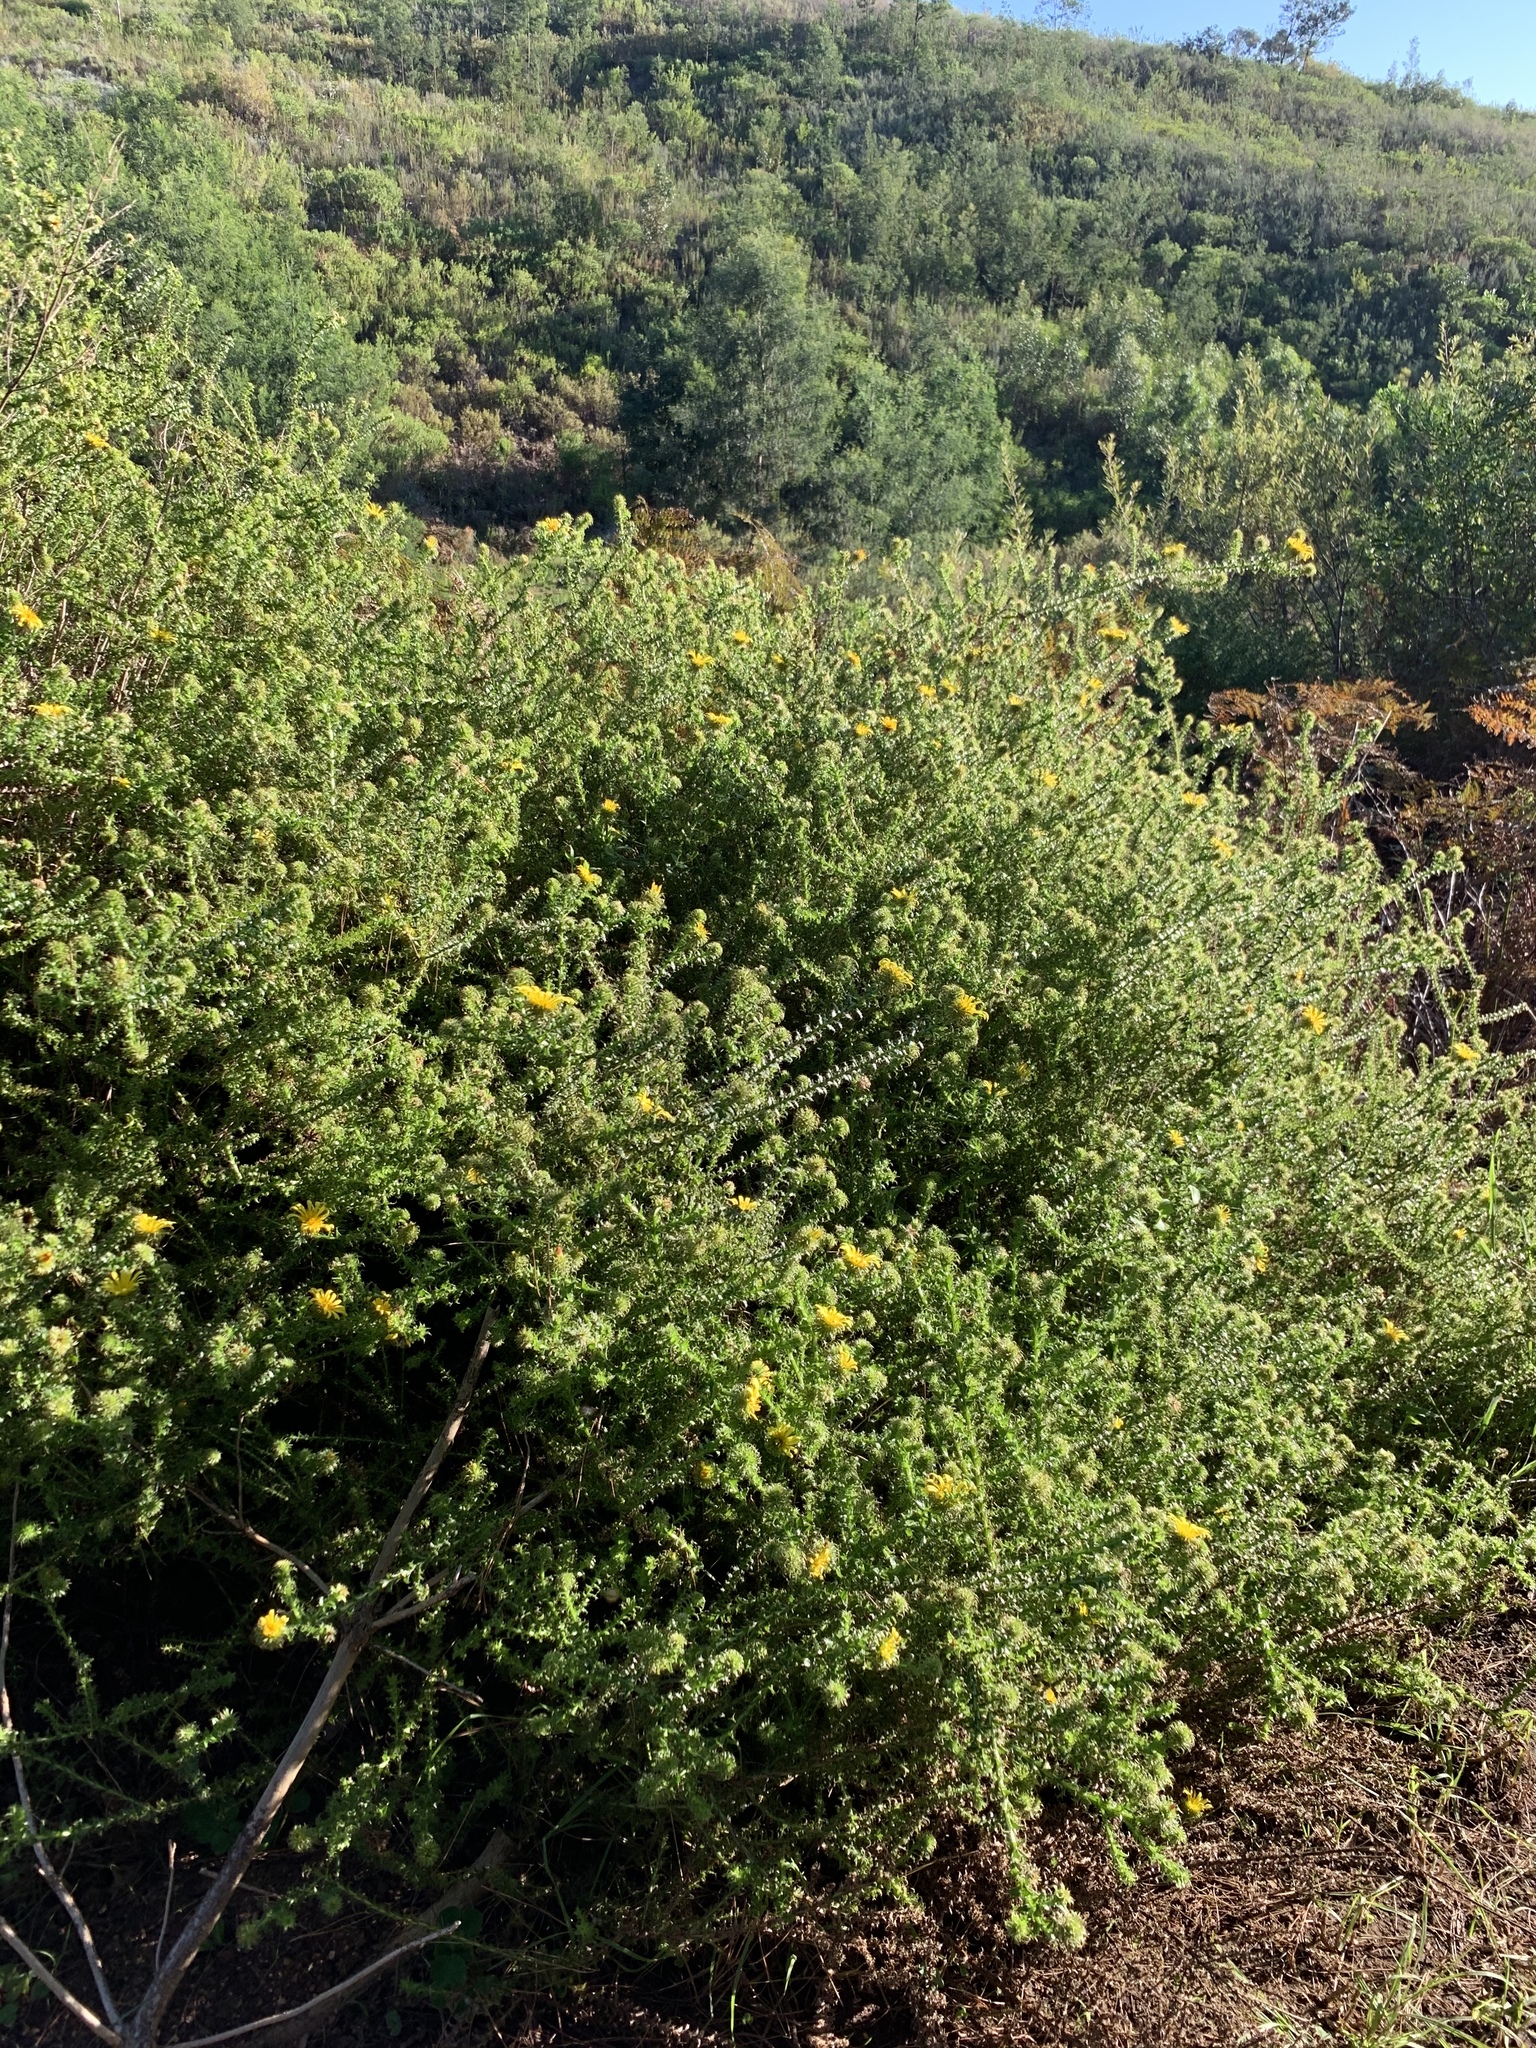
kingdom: Plantae
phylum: Tracheophyta
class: Magnoliopsida
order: Asterales
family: Asteraceae
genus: Cullumia
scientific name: Cullumia setosa
